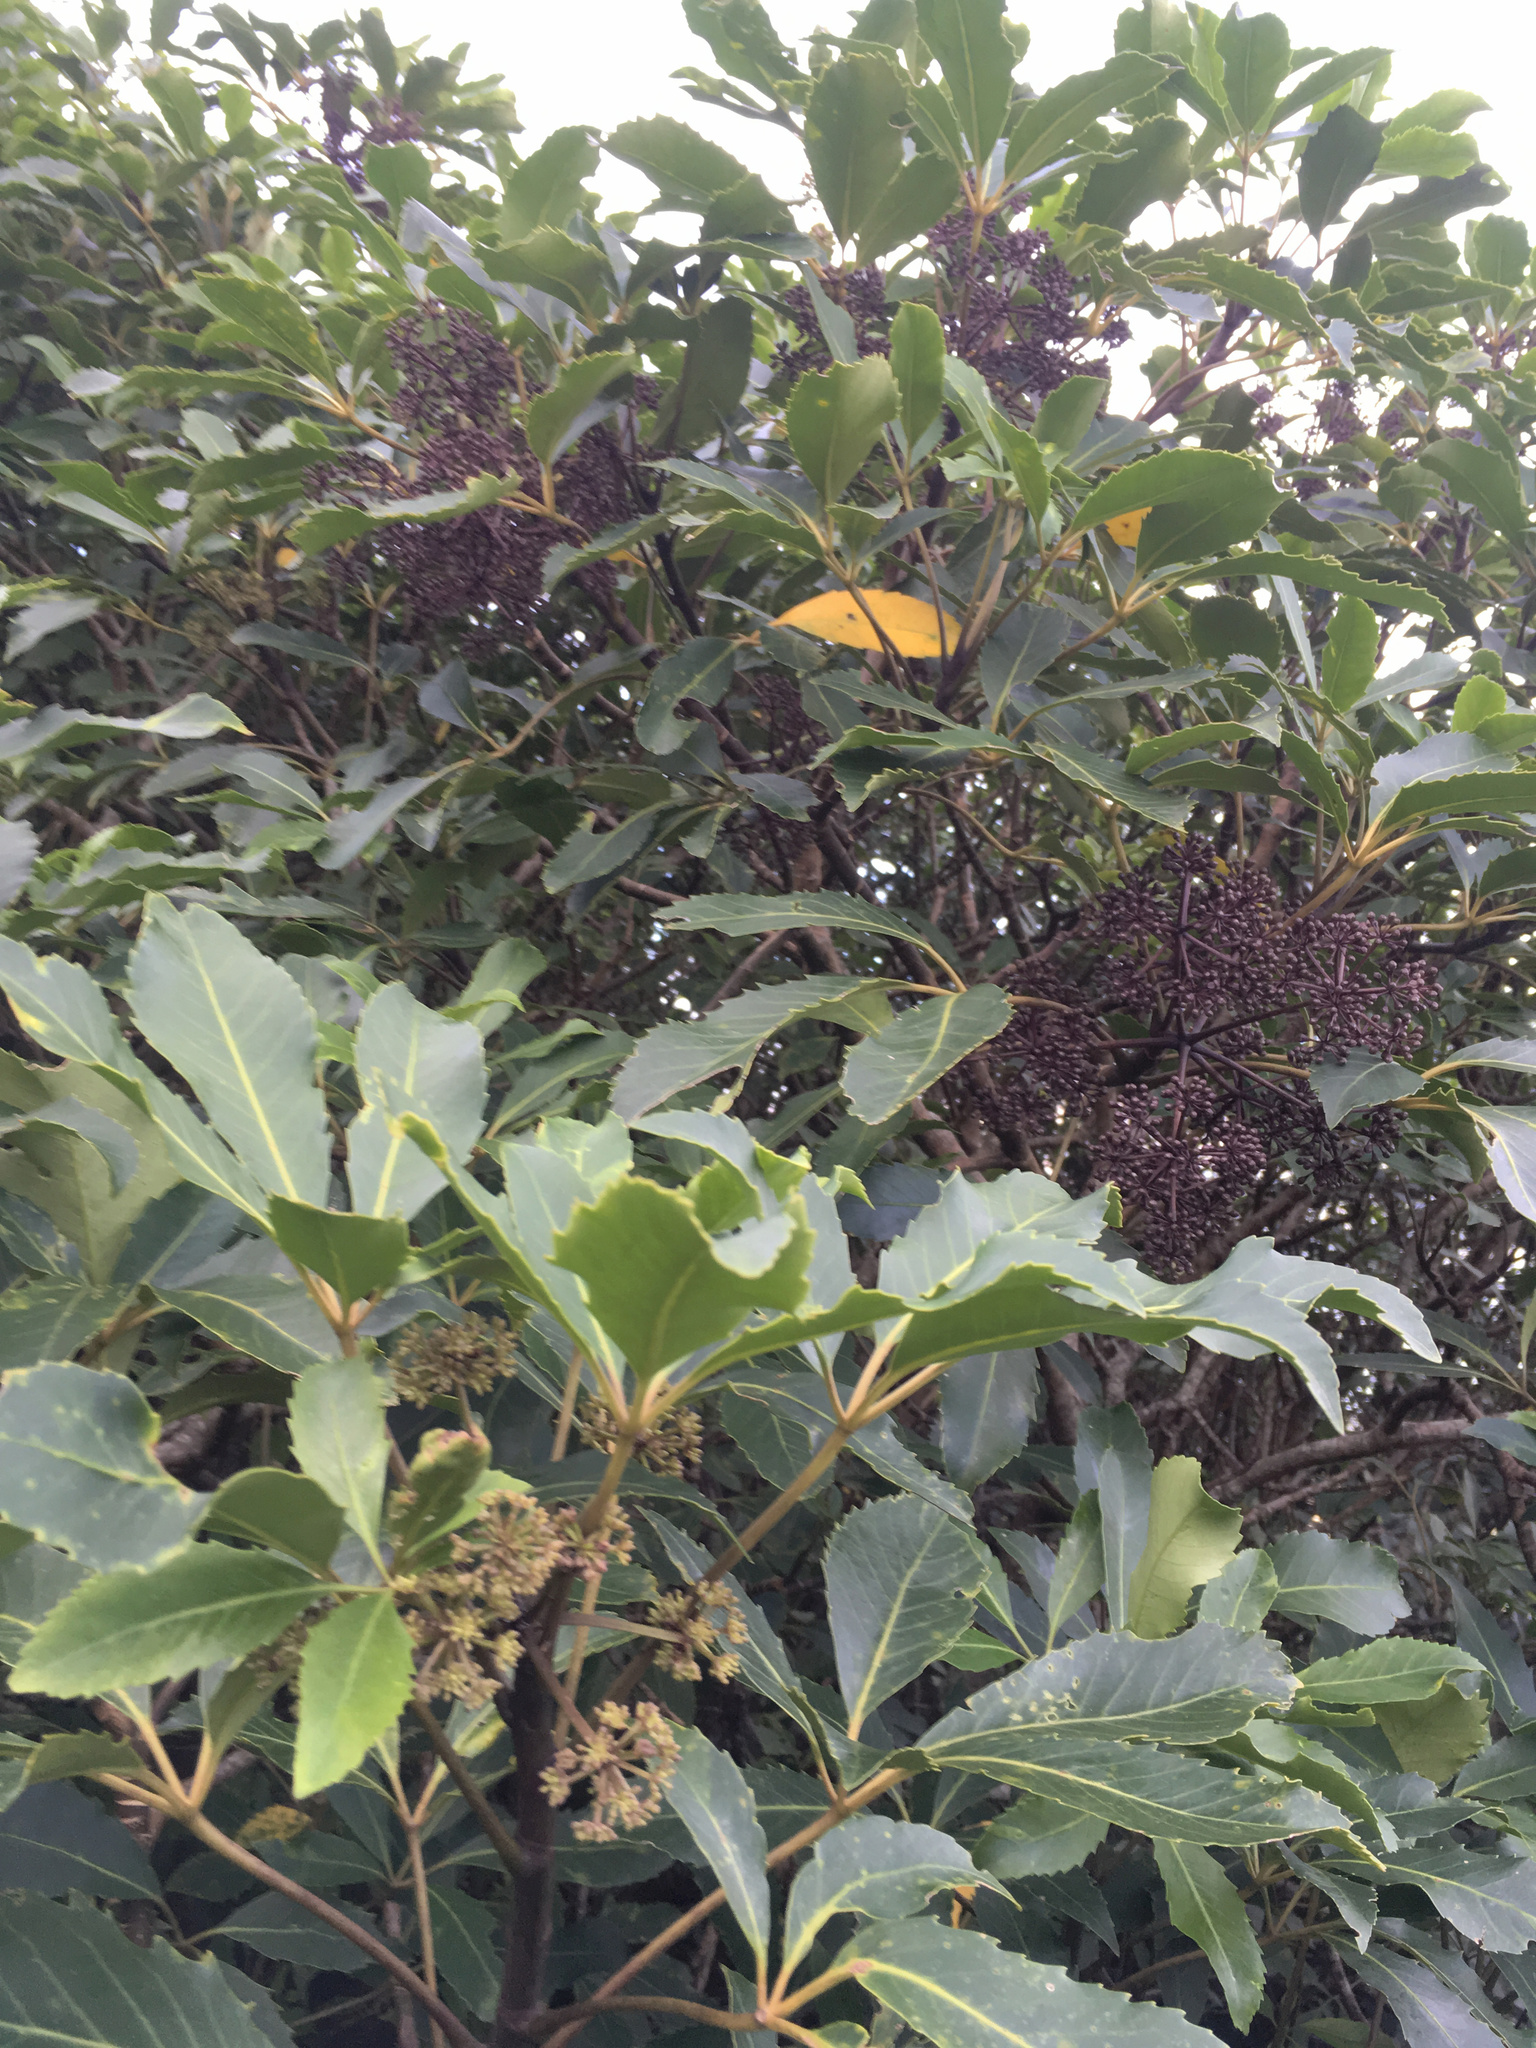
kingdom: Plantae
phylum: Tracheophyta
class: Magnoliopsida
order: Apiales
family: Araliaceae
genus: Neopanax
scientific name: Neopanax arboreus
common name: Five-fingers
